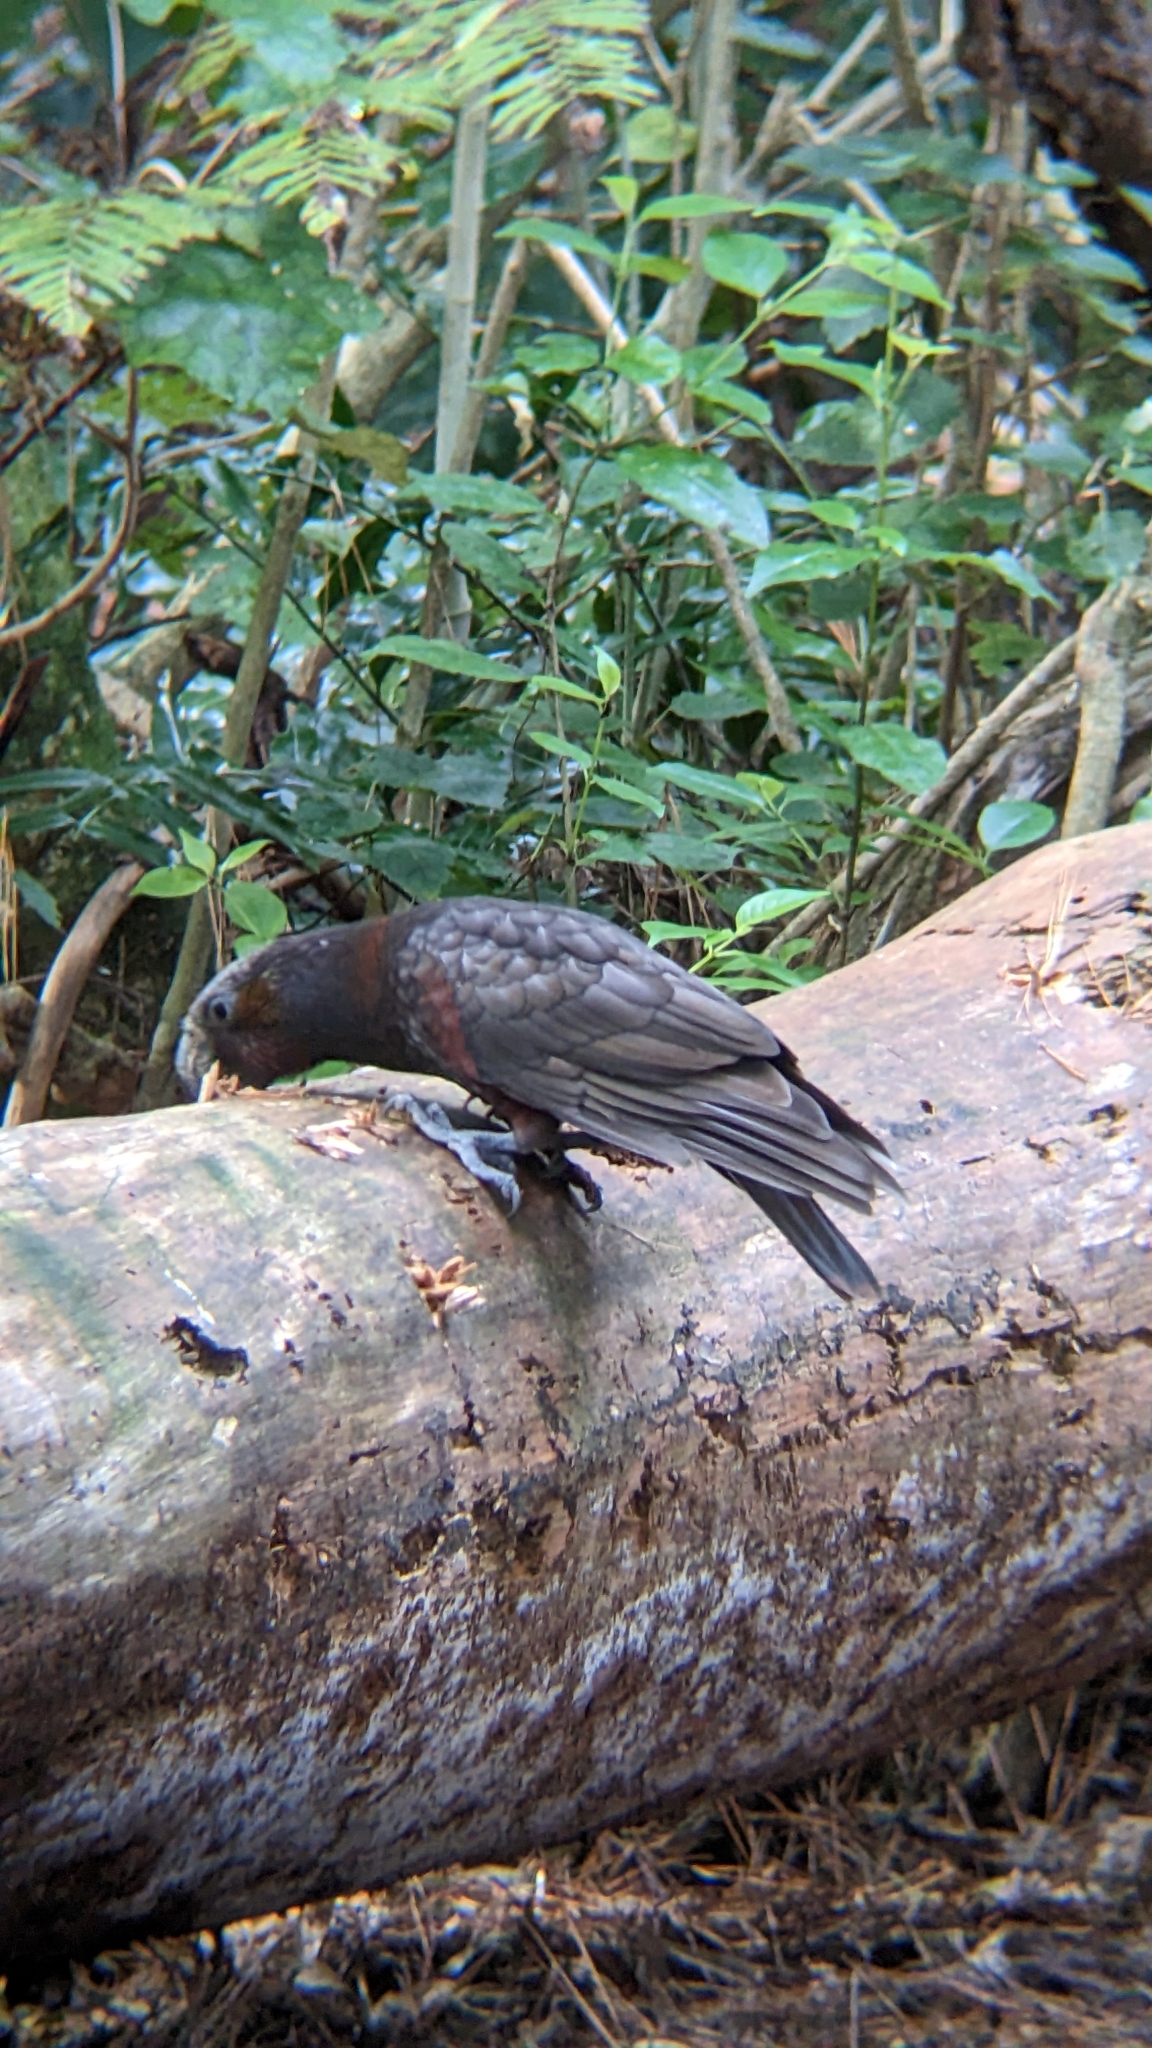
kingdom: Animalia
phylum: Chordata
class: Aves
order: Psittaciformes
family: Psittacidae
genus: Nestor
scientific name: Nestor meridionalis
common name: New zealand kaka
